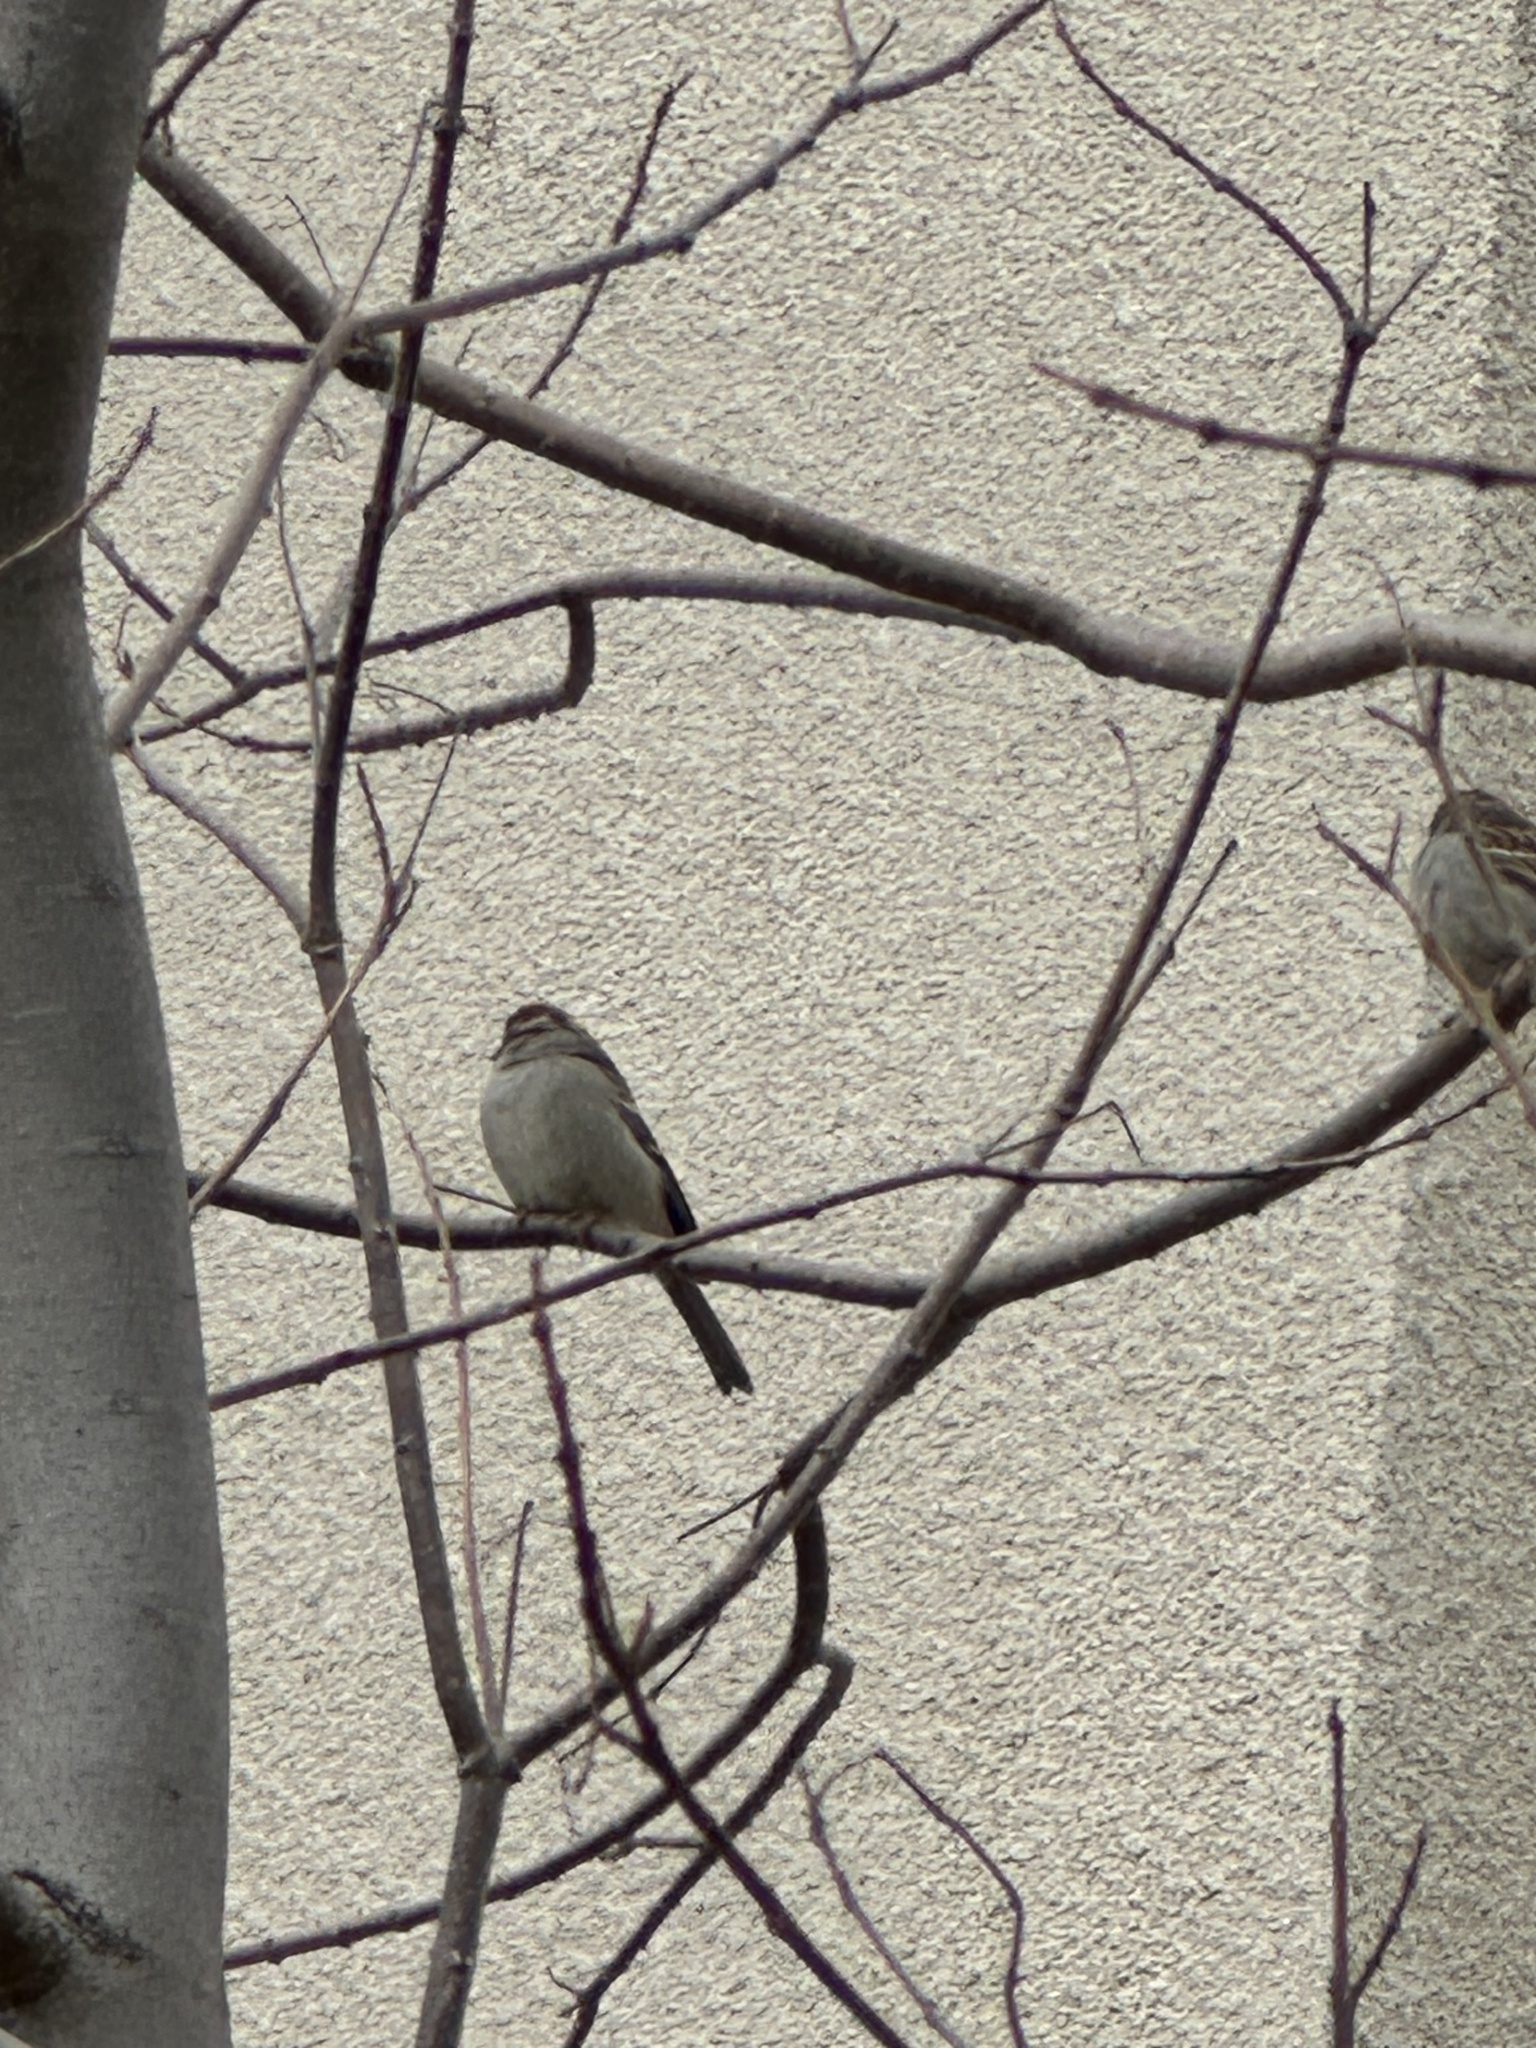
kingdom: Animalia
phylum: Chordata
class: Aves
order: Passeriformes
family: Passerellidae
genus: Spizella
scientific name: Spizella passerina
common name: Chipping sparrow
